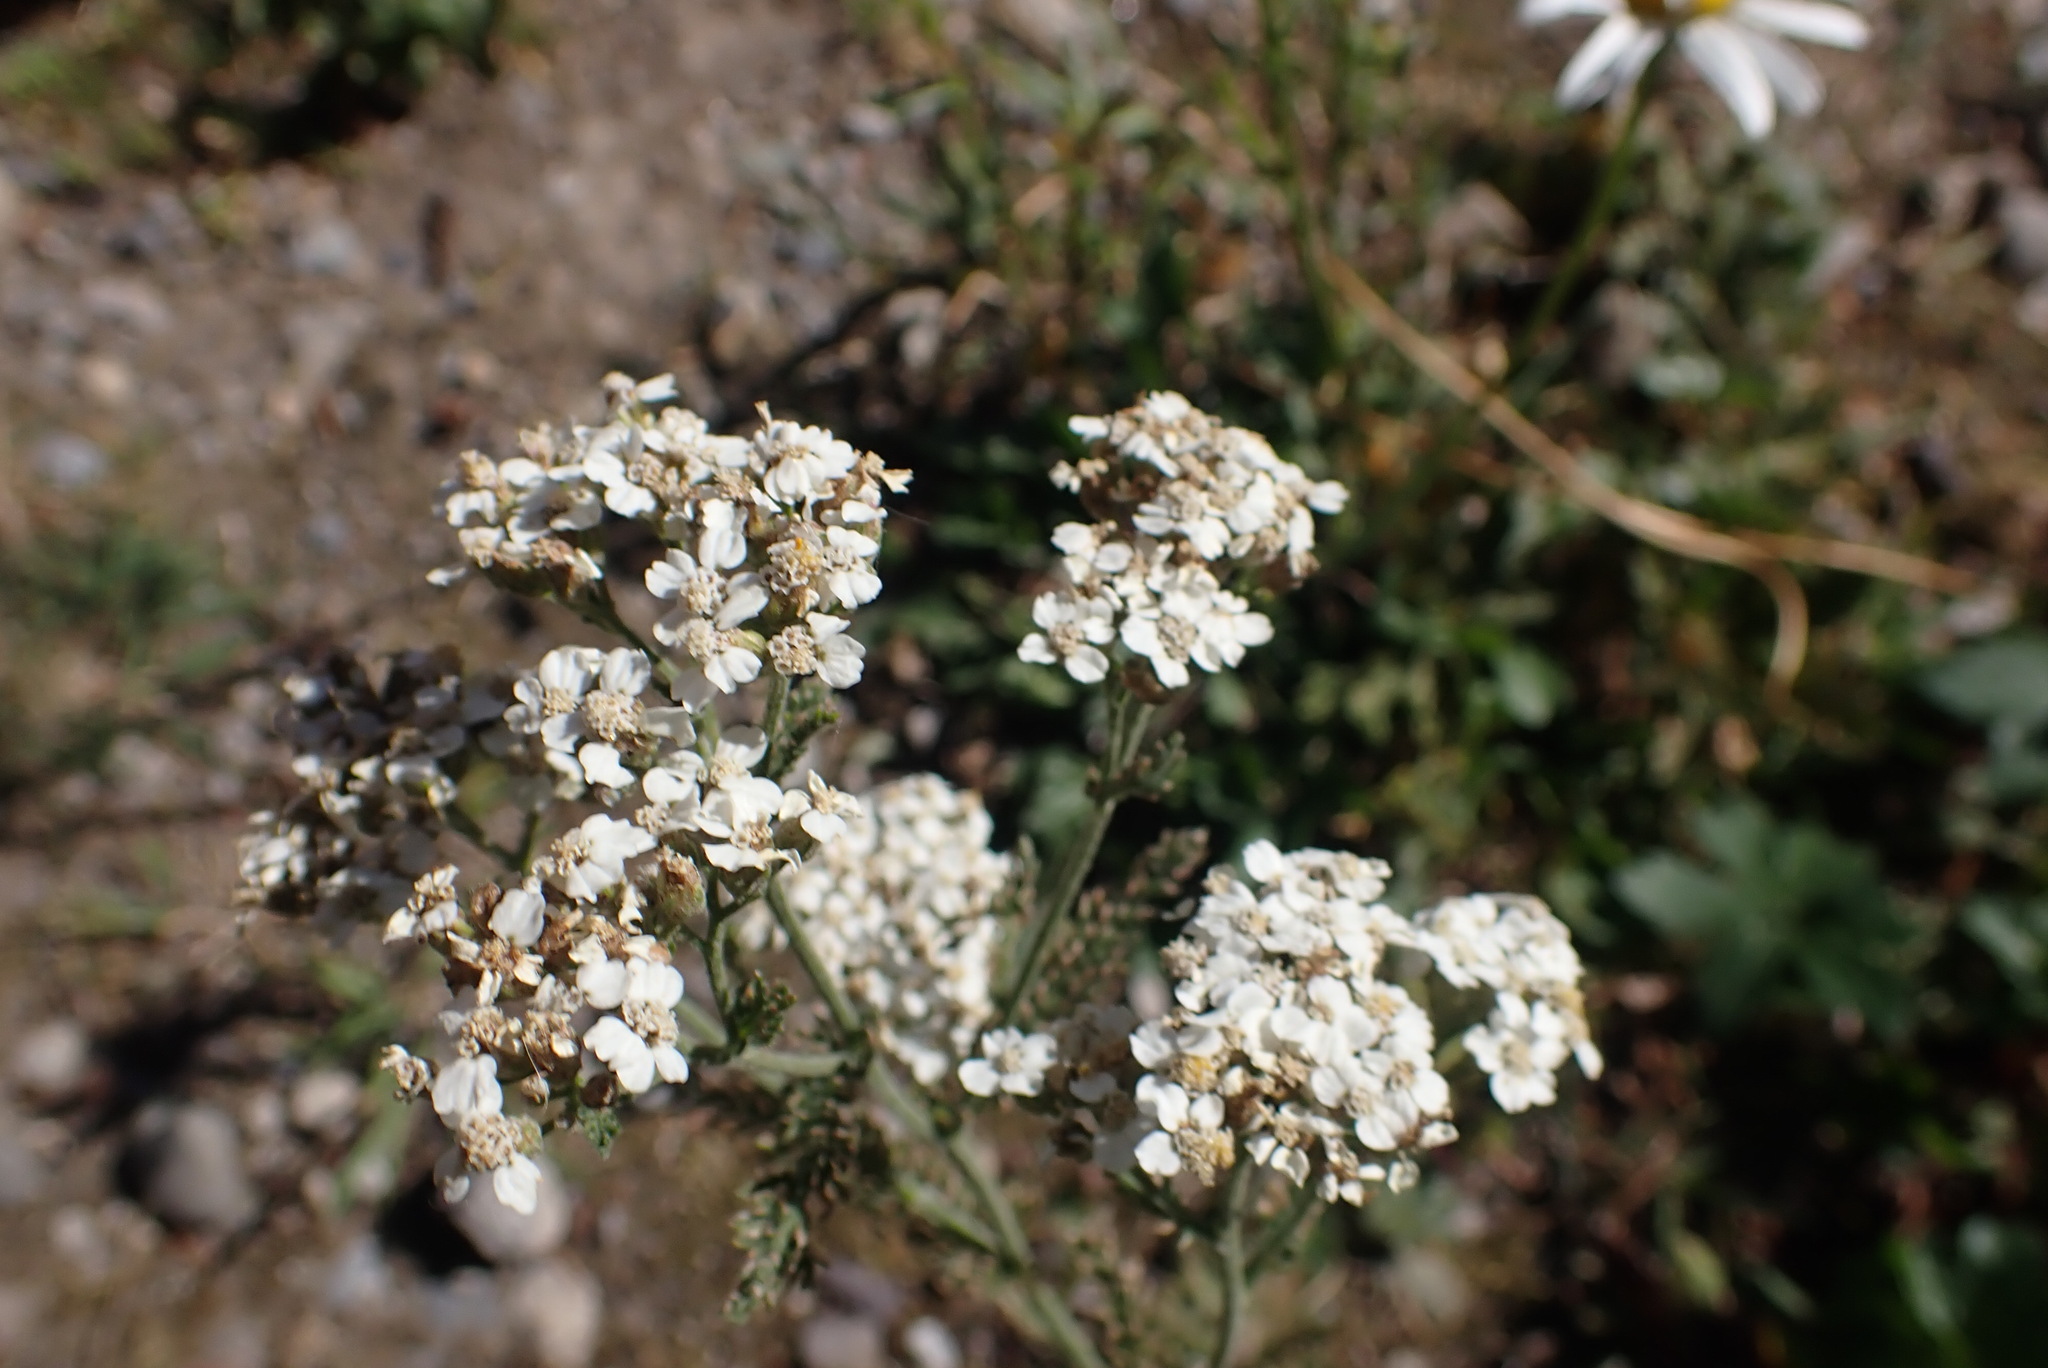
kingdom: Plantae
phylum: Tracheophyta
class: Magnoliopsida
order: Asterales
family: Asteraceae
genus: Achillea
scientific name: Achillea millefolium
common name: Yarrow
